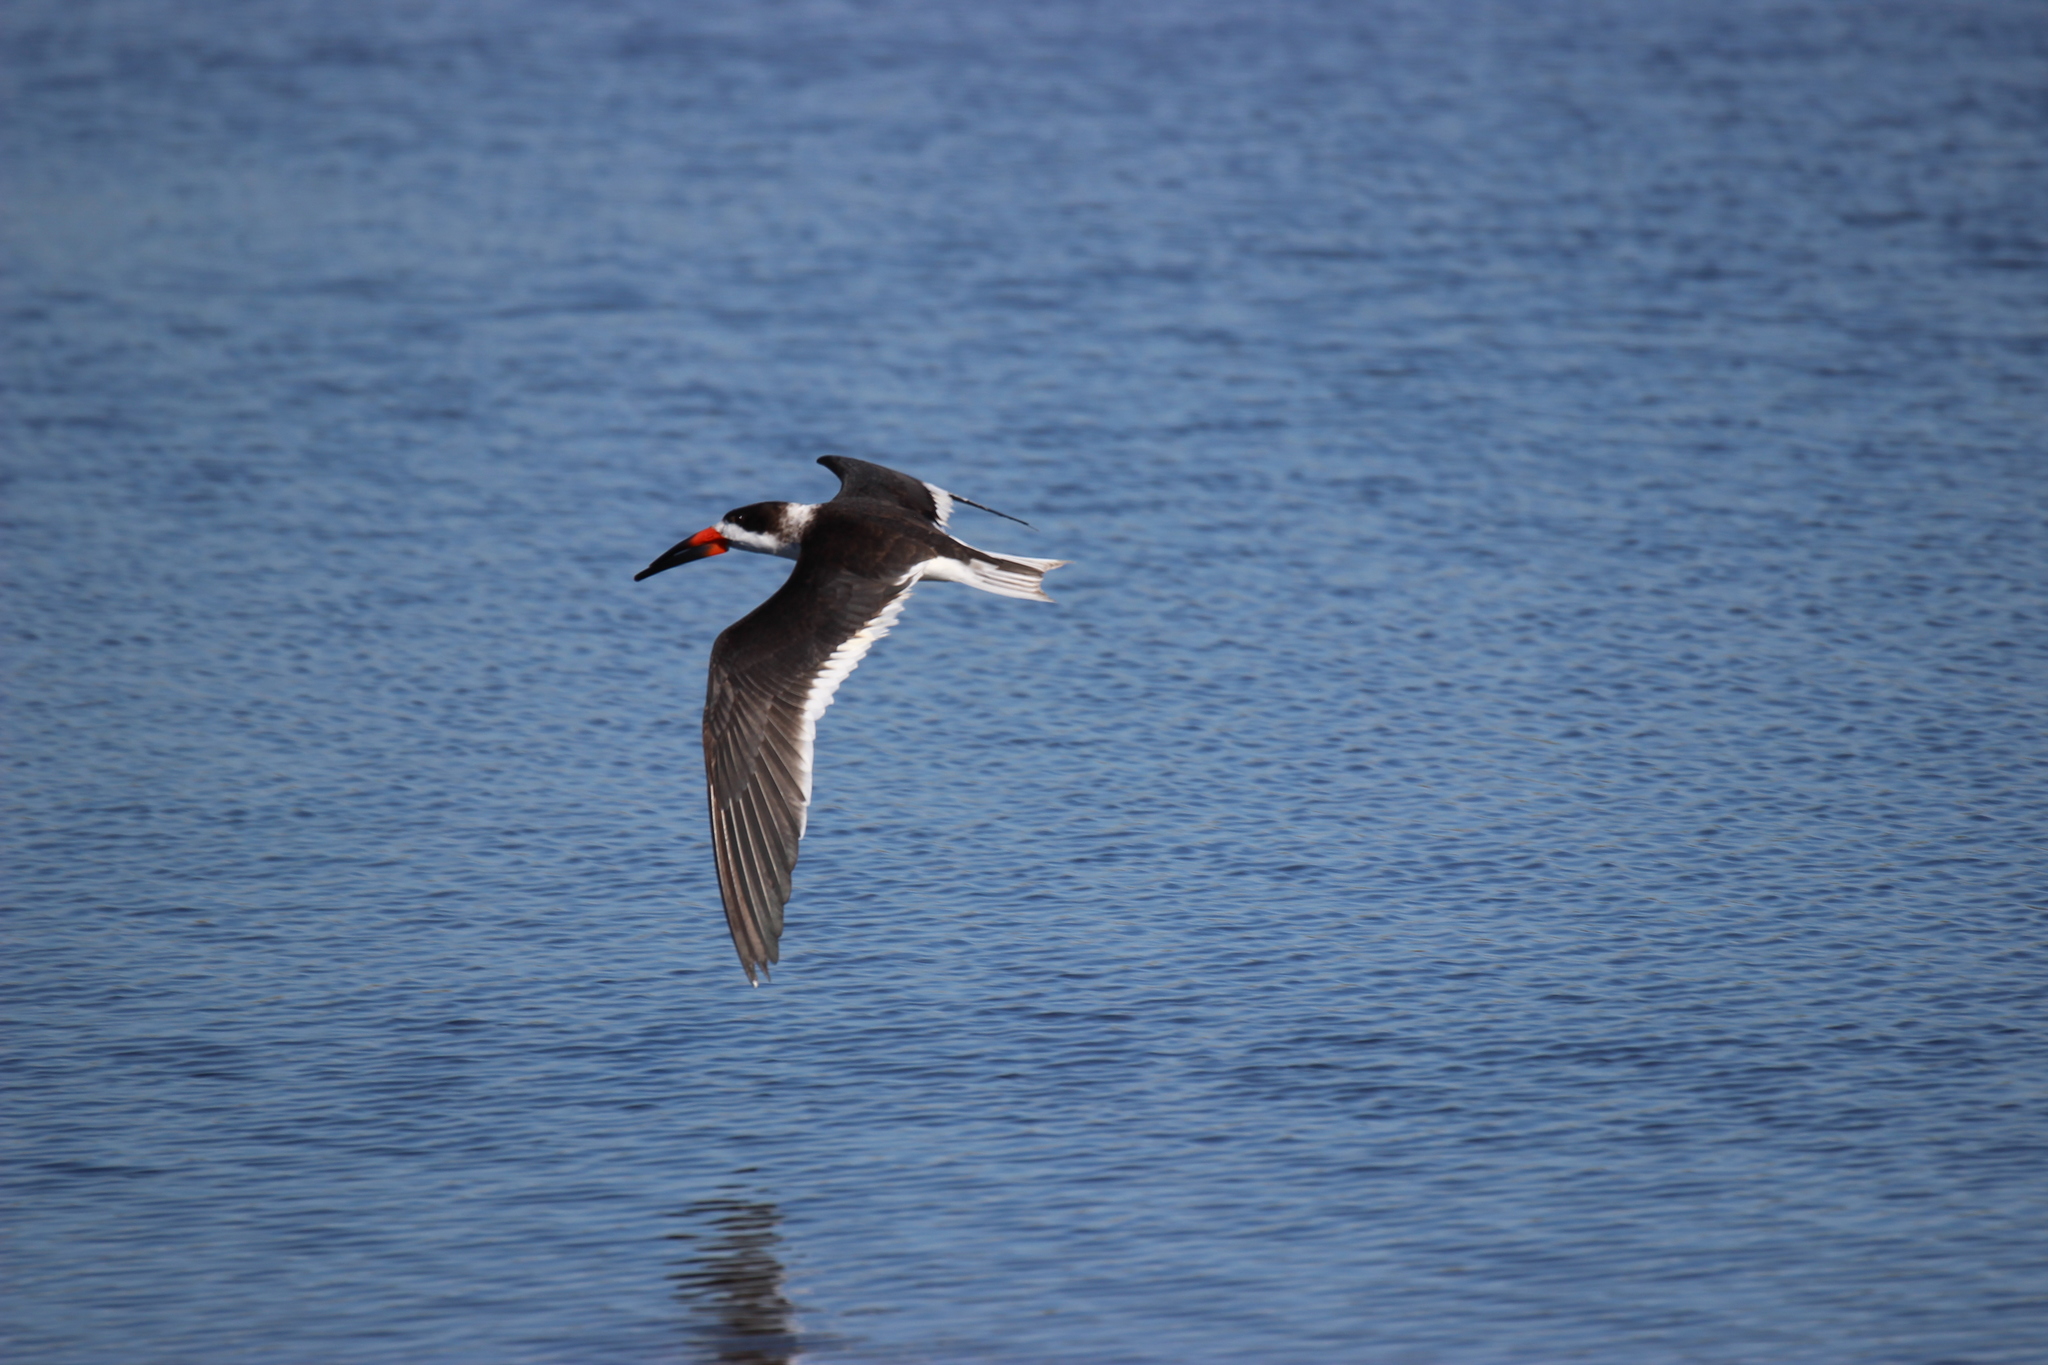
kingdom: Animalia
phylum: Chordata
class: Aves
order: Charadriiformes
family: Laridae
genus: Rynchops
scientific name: Rynchops niger
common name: Black skimmer
